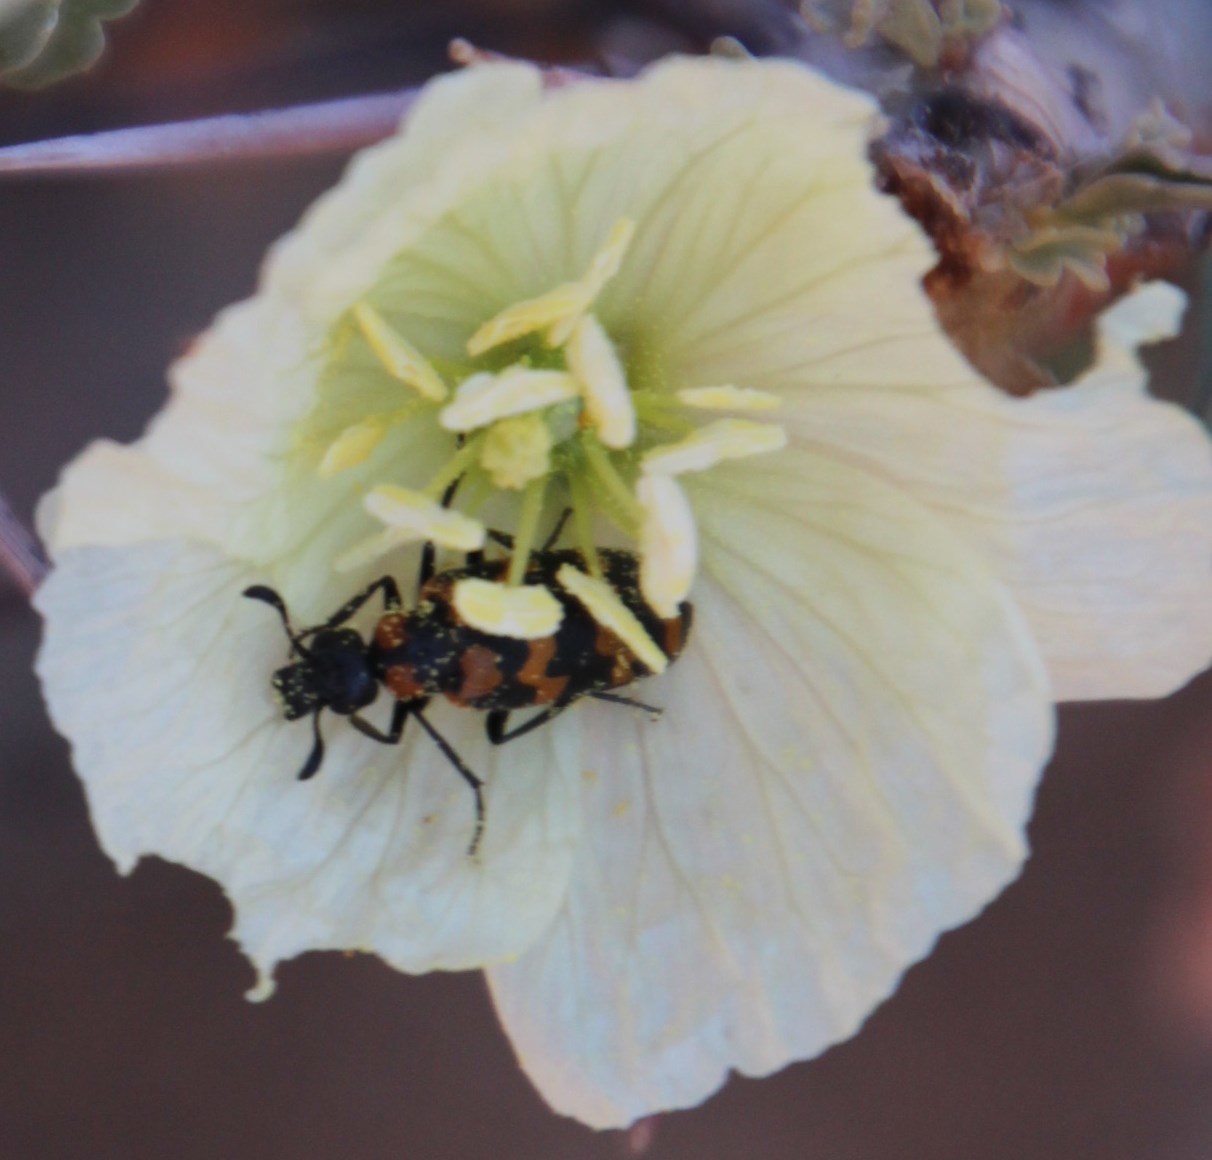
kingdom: Plantae
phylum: Tracheophyta
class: Magnoliopsida
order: Geraniales
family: Geraniaceae
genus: Monsonia
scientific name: Monsonia crassicaulis
